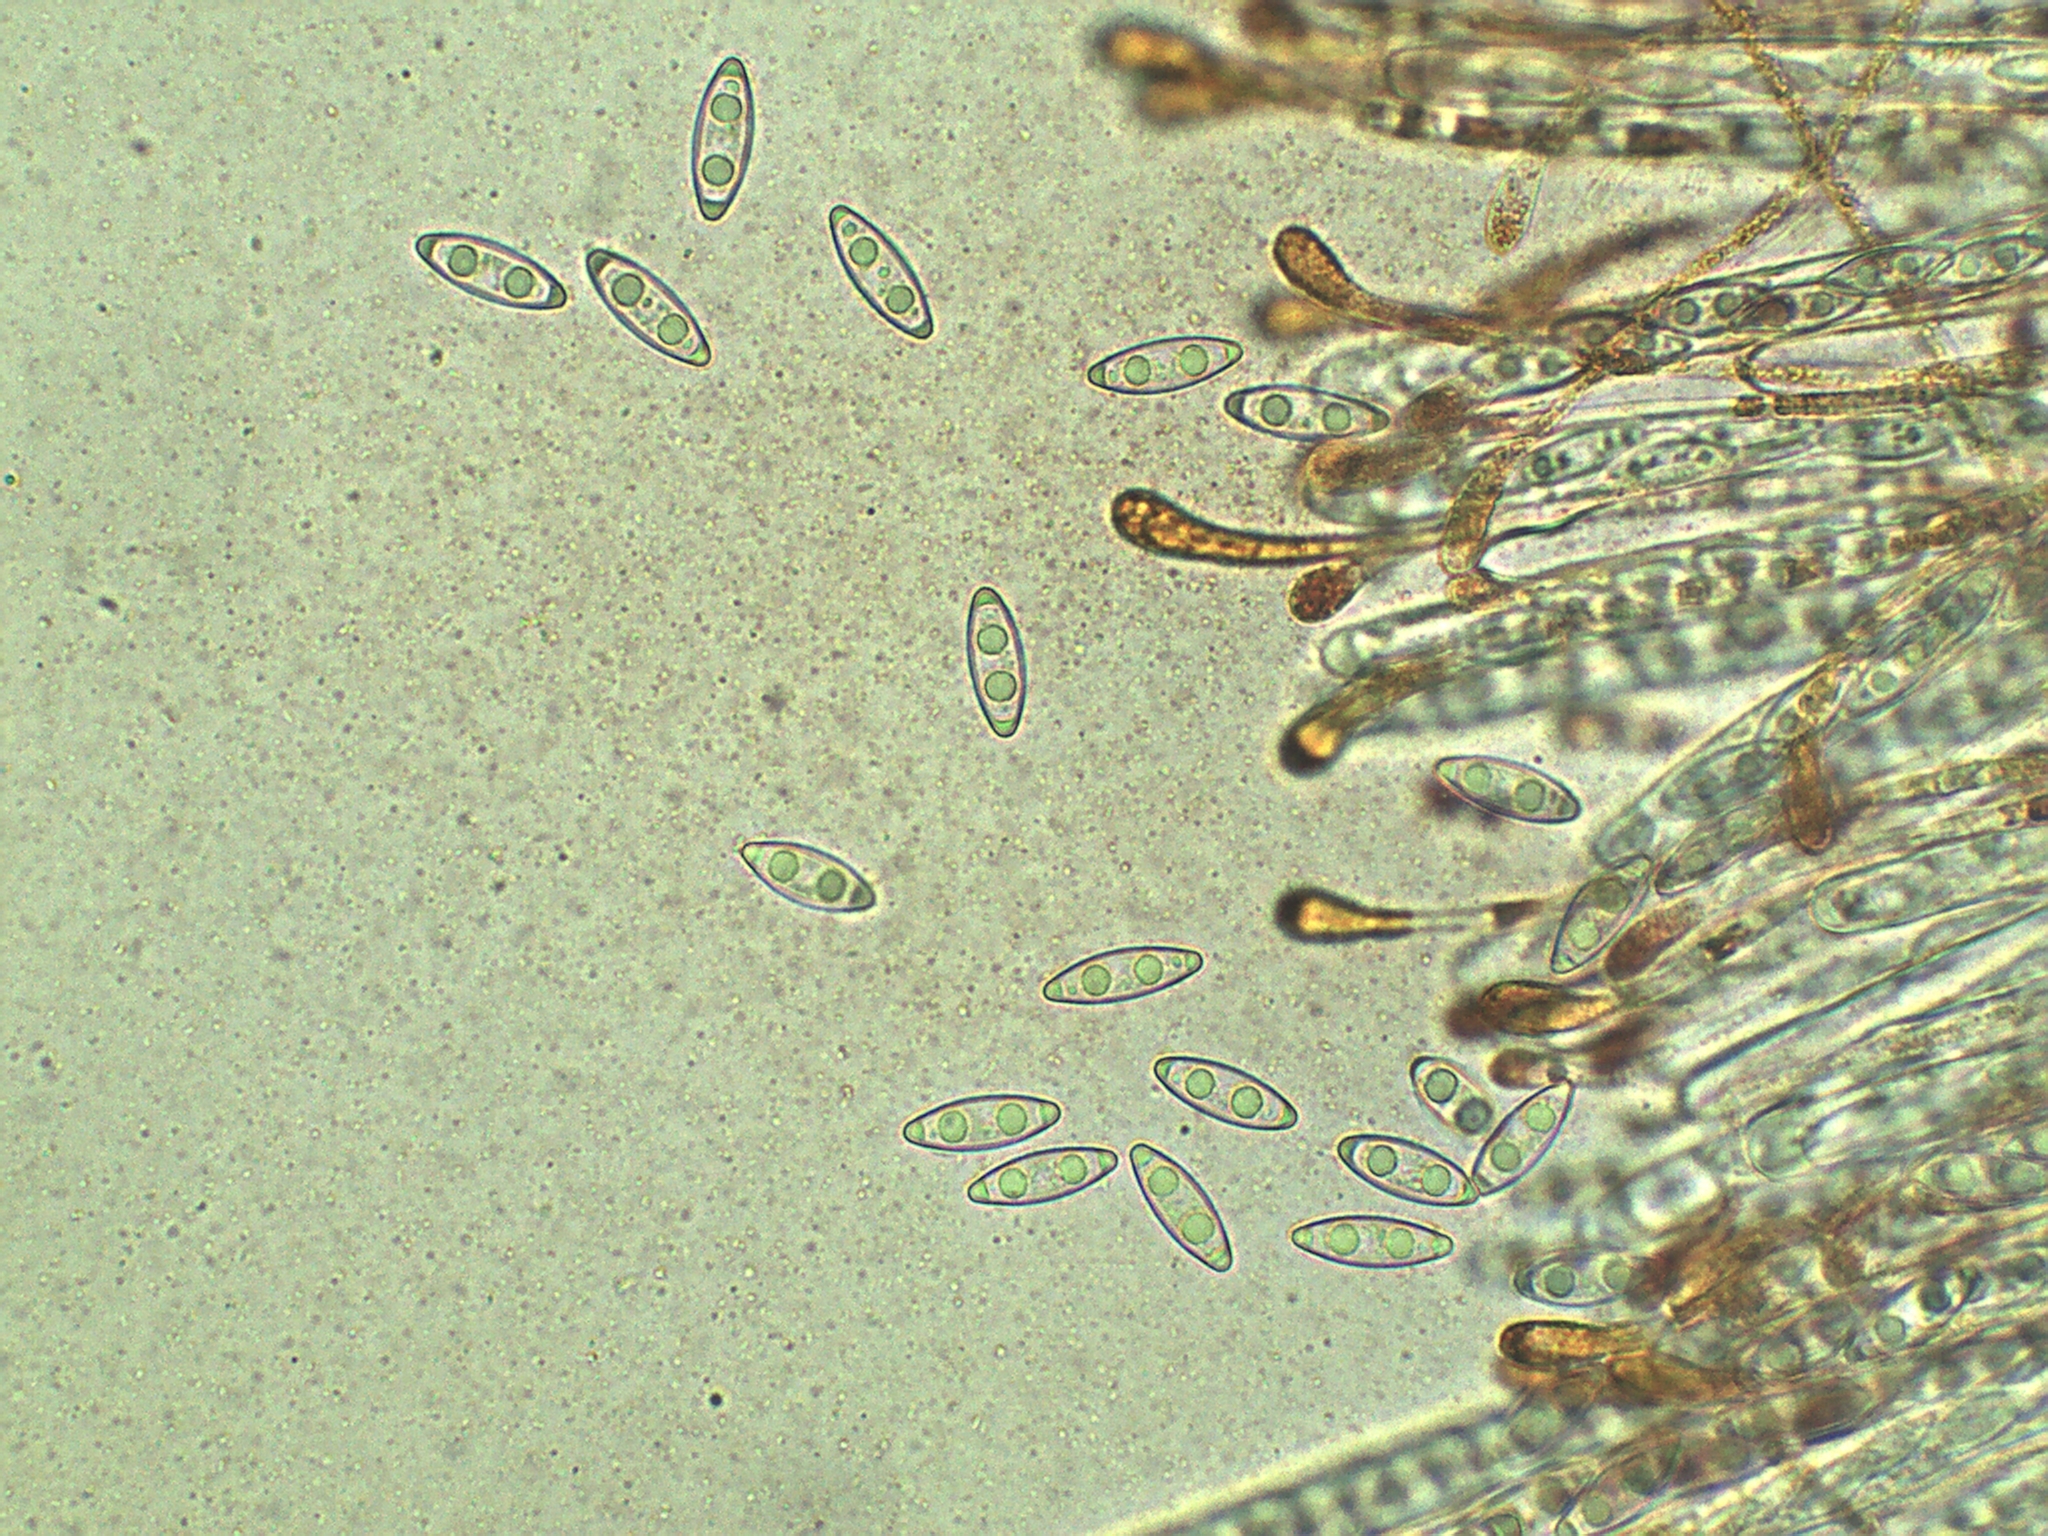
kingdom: Fungi
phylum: Ascomycota
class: Pezizomycetes
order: Pezizales
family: Pyronemataceae
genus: Byssonectria
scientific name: Byssonectria terrestris
